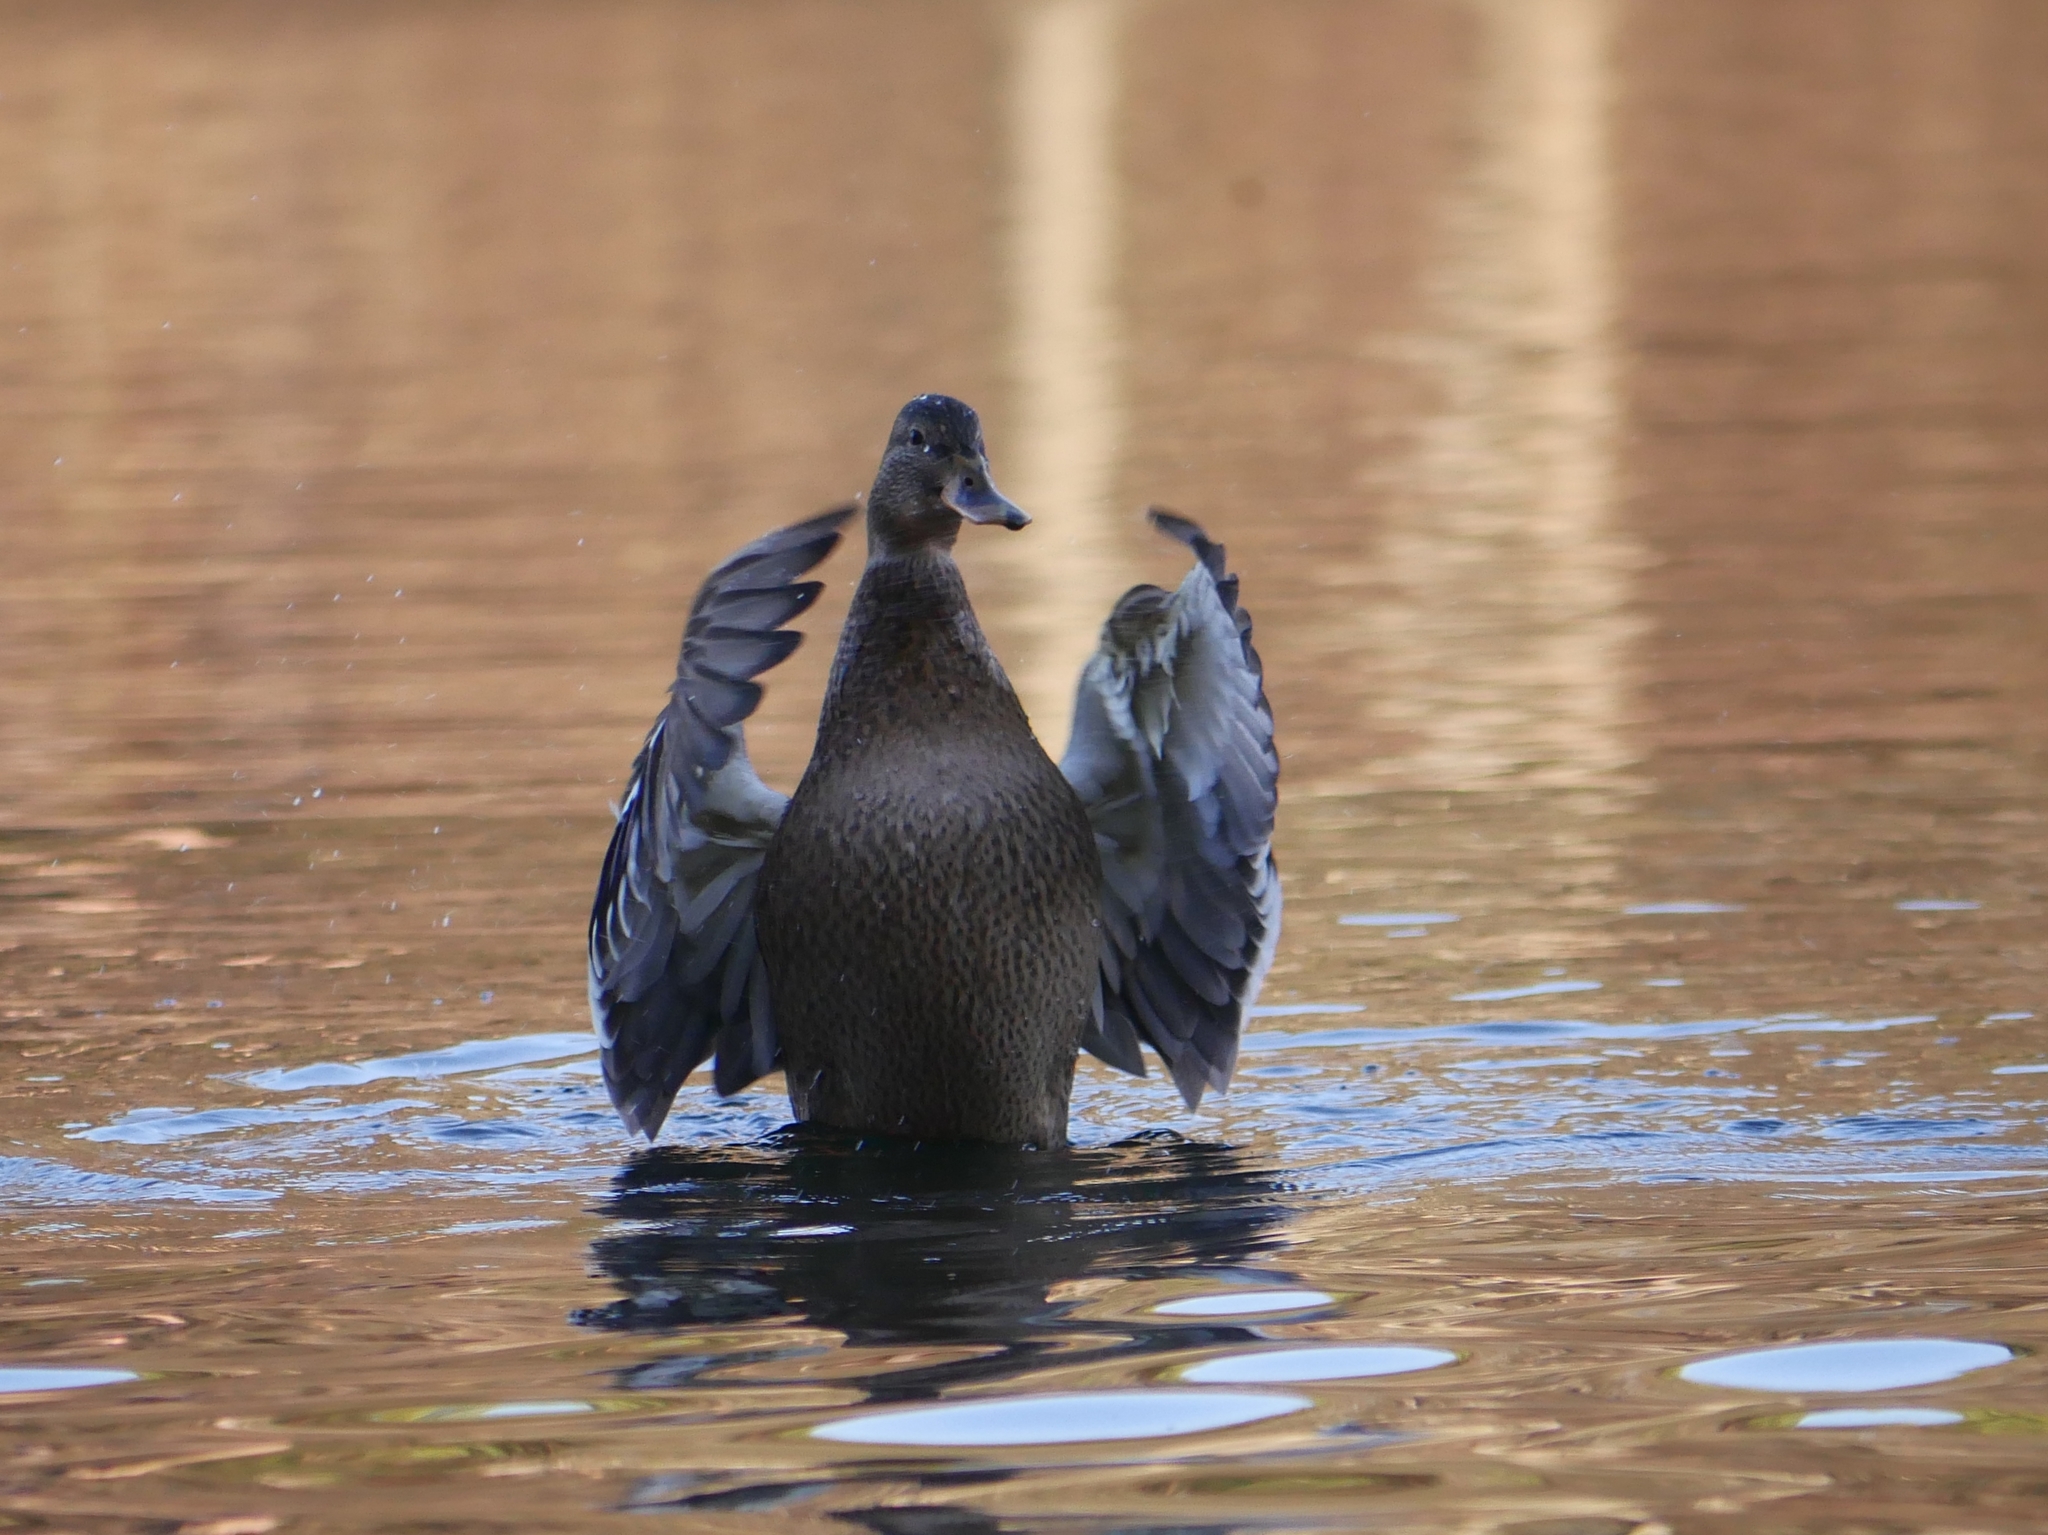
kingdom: Animalia
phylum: Chordata
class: Aves
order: Anseriformes
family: Anatidae
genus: Anas
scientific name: Anas platyrhynchos
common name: Mallard
